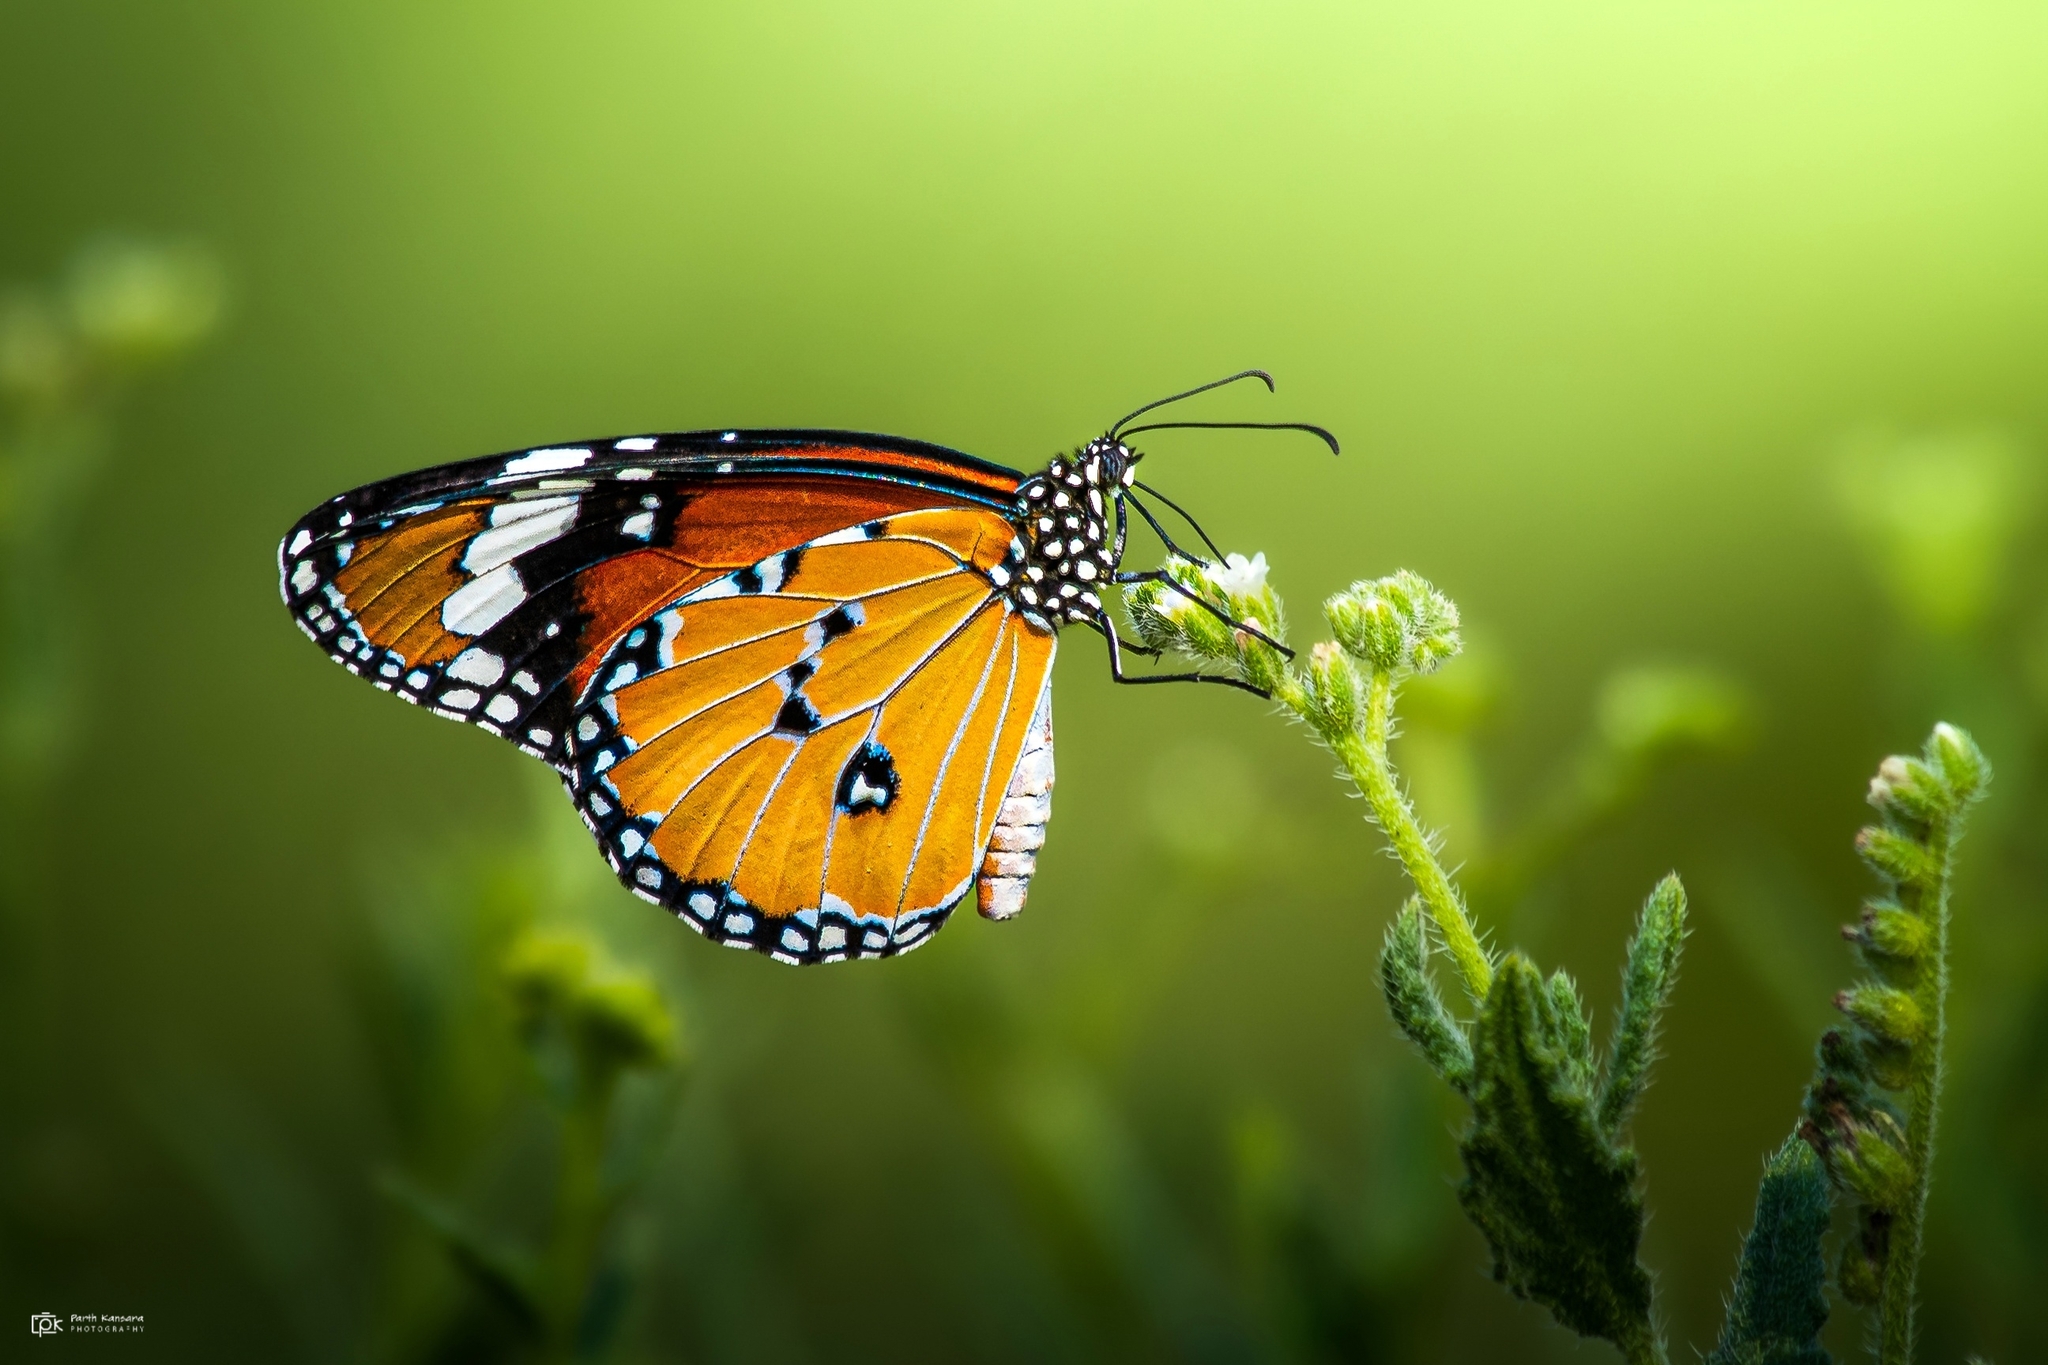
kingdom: Animalia
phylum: Arthropoda
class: Insecta
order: Lepidoptera
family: Nymphalidae
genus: Danaus
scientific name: Danaus chrysippus
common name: Plain tiger
